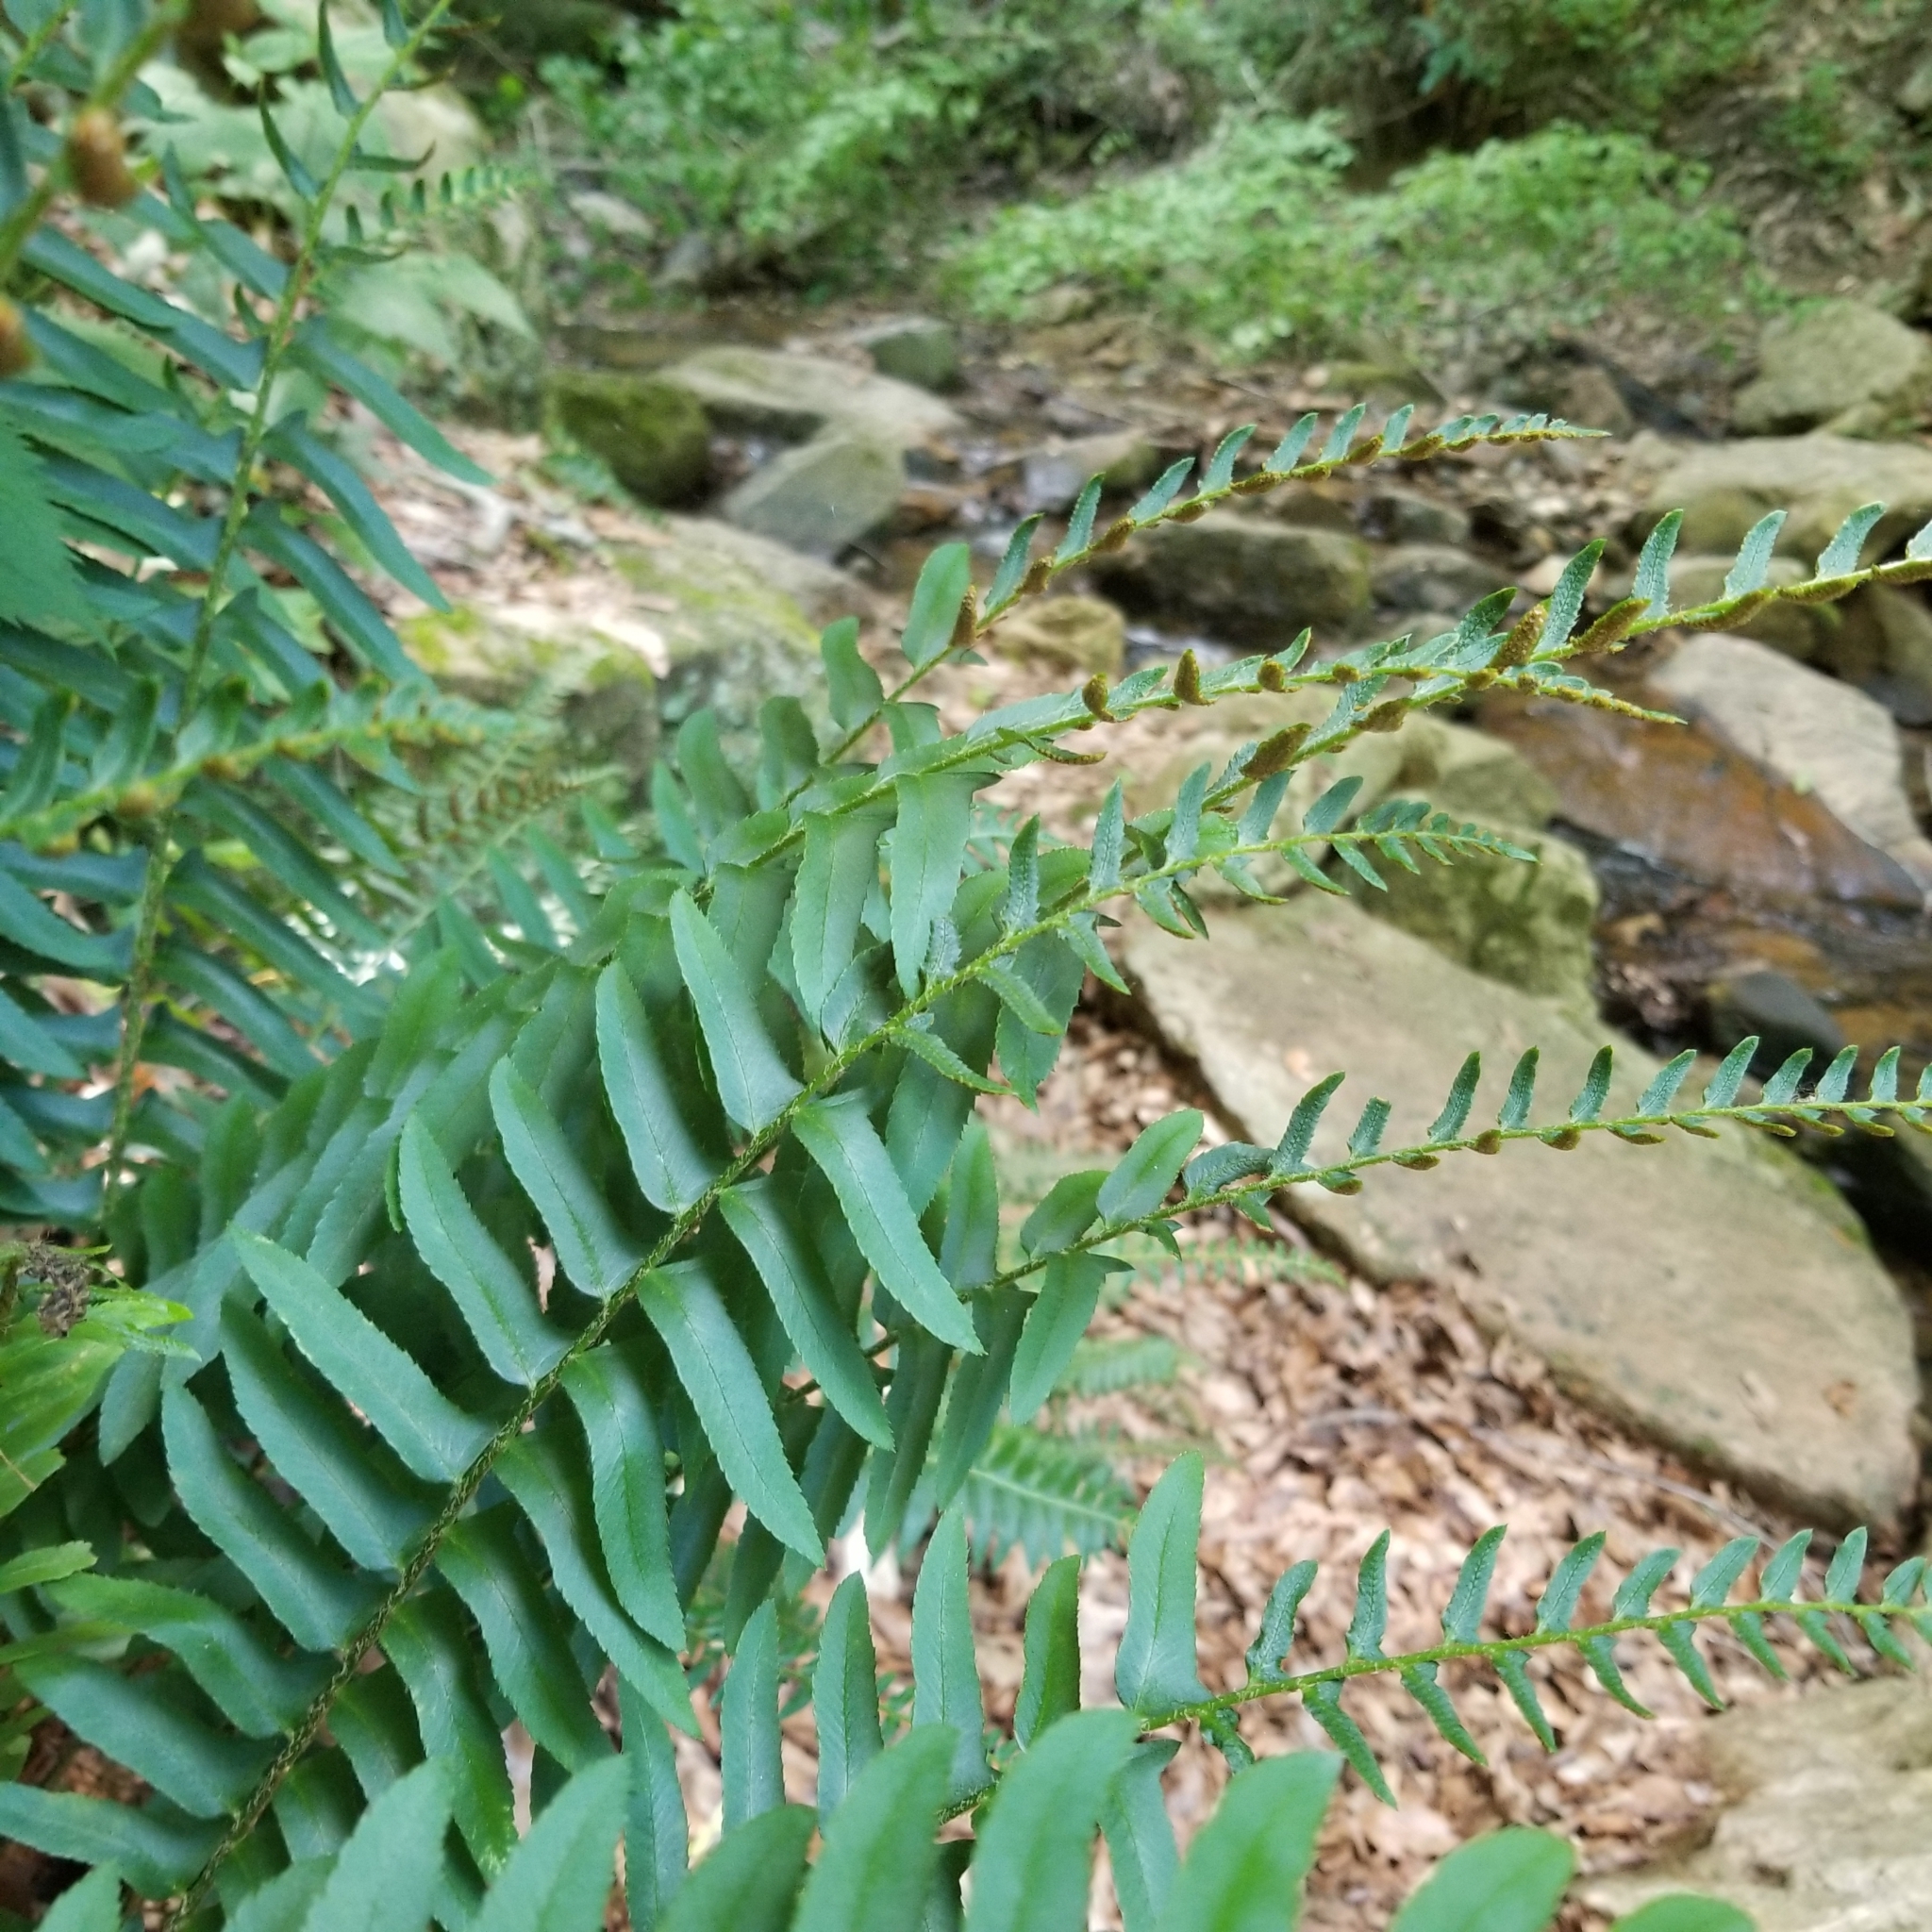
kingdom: Plantae
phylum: Tracheophyta
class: Polypodiopsida
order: Polypodiales
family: Dryopteridaceae
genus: Polystichum
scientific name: Polystichum acrostichoides
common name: Christmas fern
